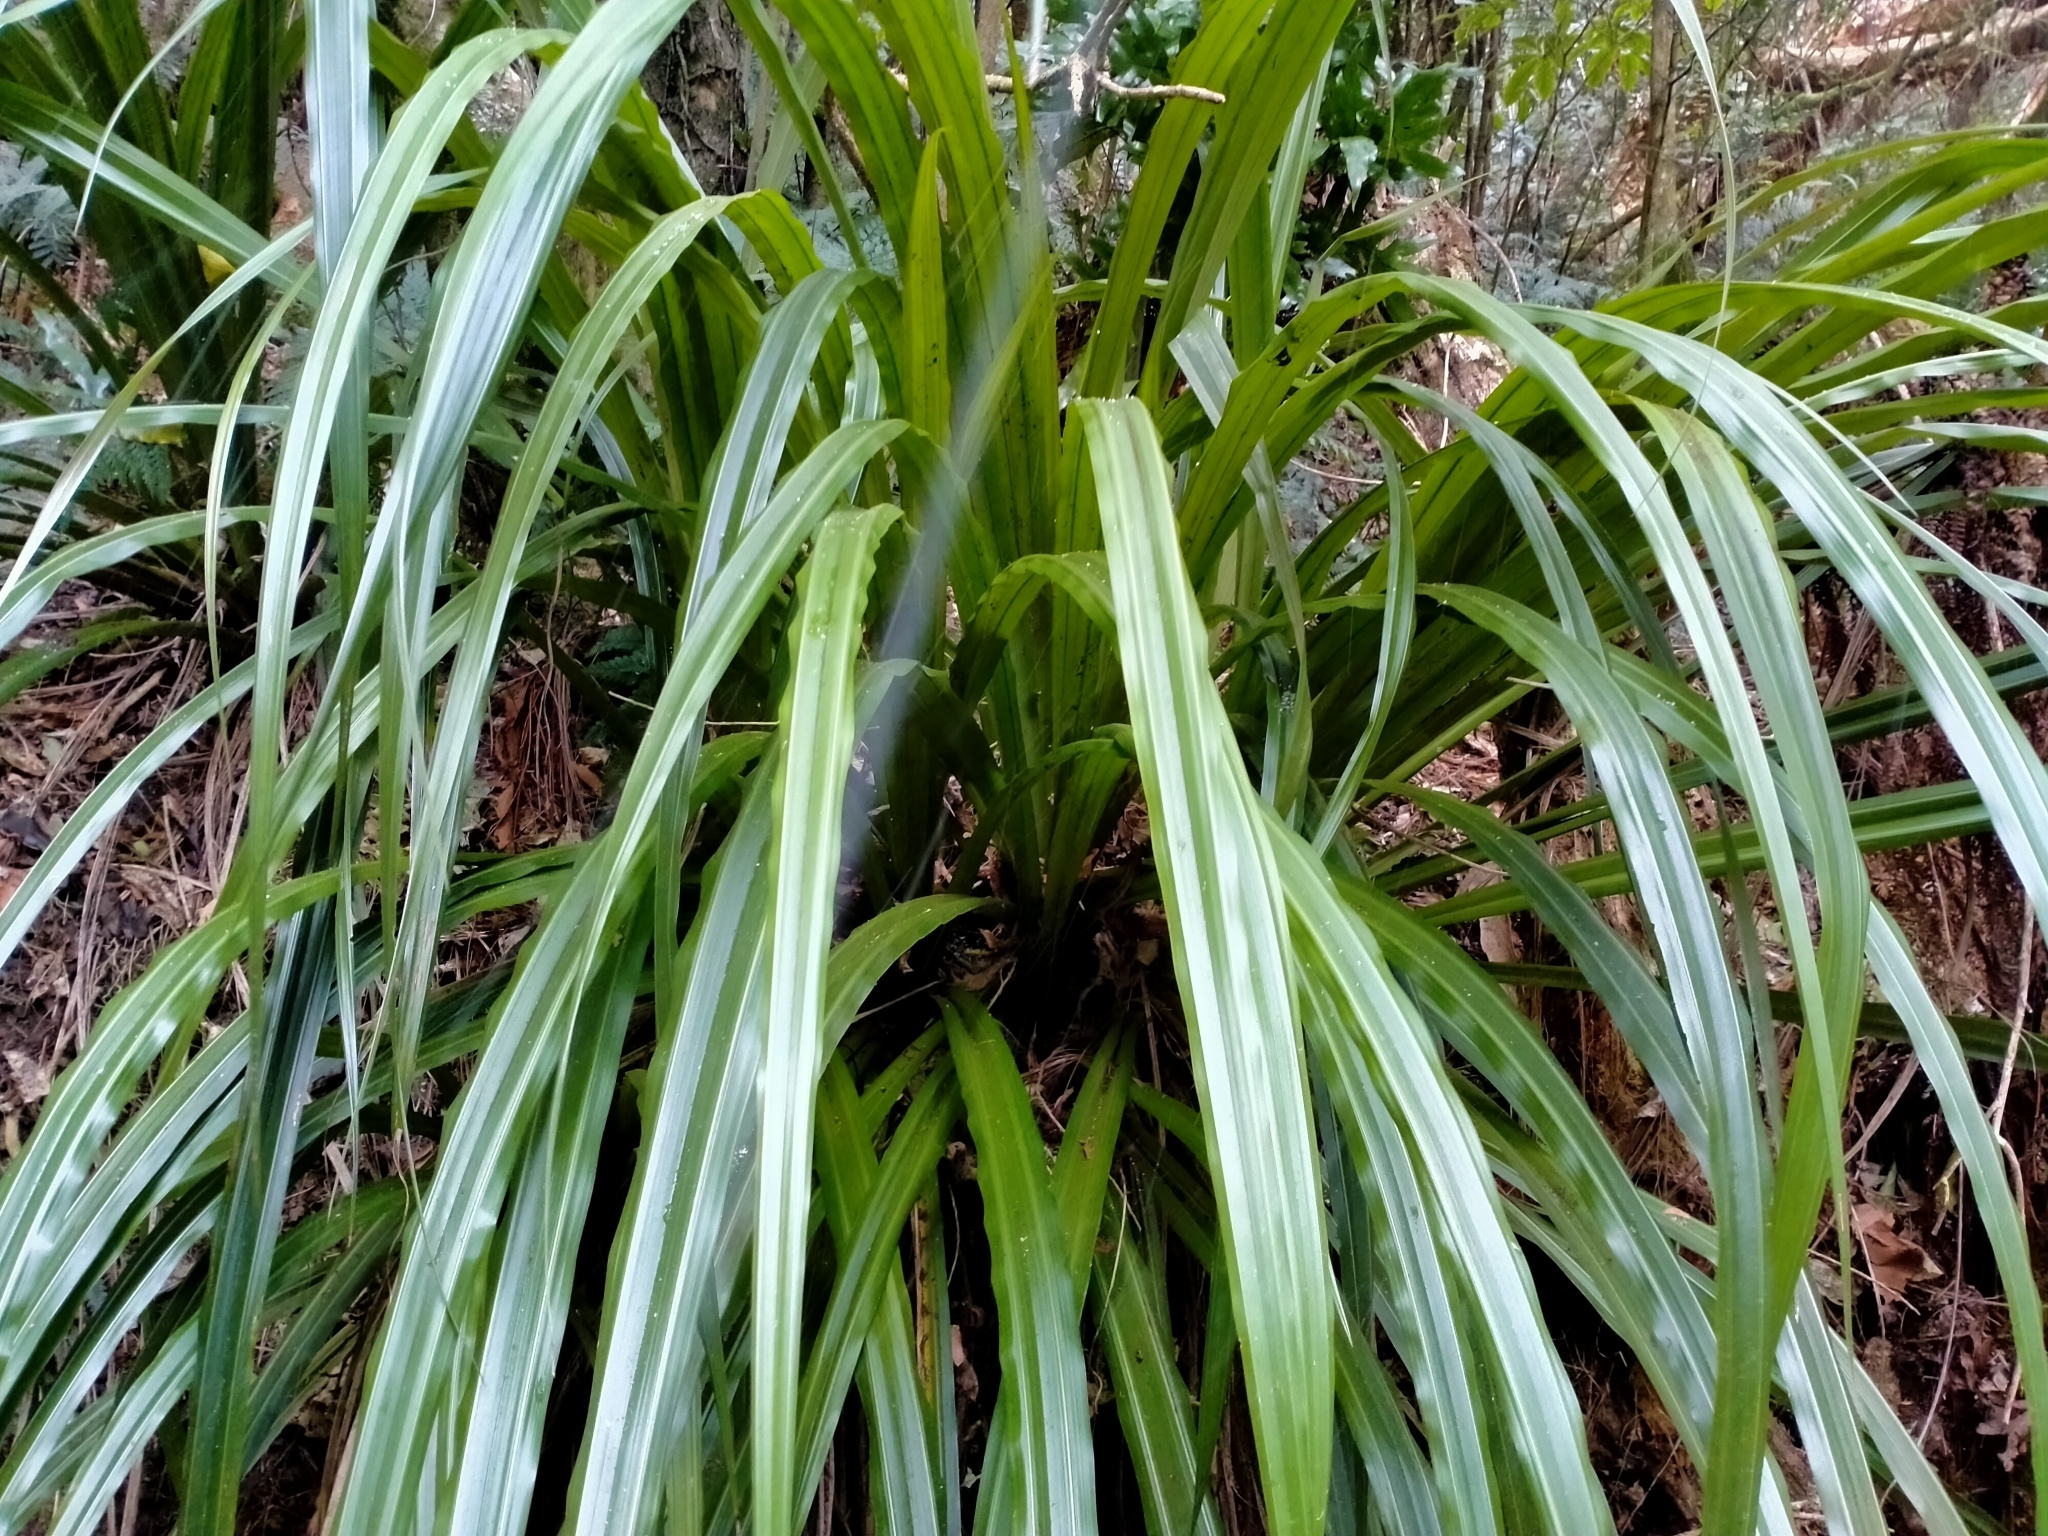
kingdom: Plantae
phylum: Tracheophyta
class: Liliopsida
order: Asparagales
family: Asteliaceae
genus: Astelia
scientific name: Astelia fragrans
